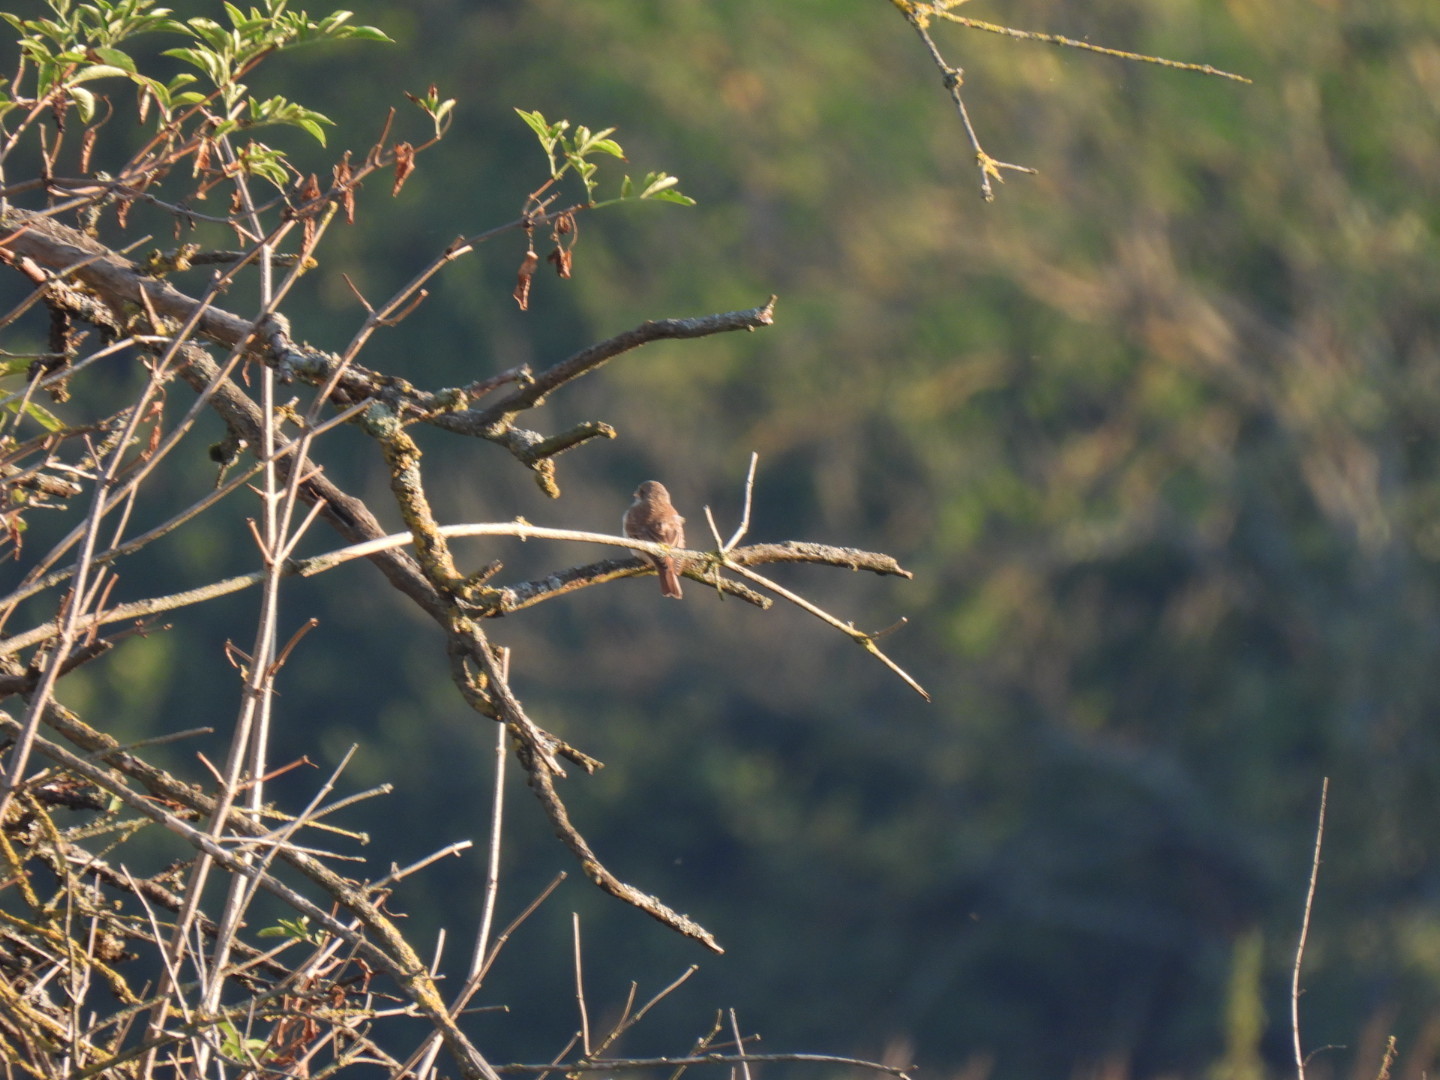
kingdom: Animalia
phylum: Chordata
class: Aves
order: Passeriformes
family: Laniidae
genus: Lanius
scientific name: Lanius collurio
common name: Red-backed shrike
